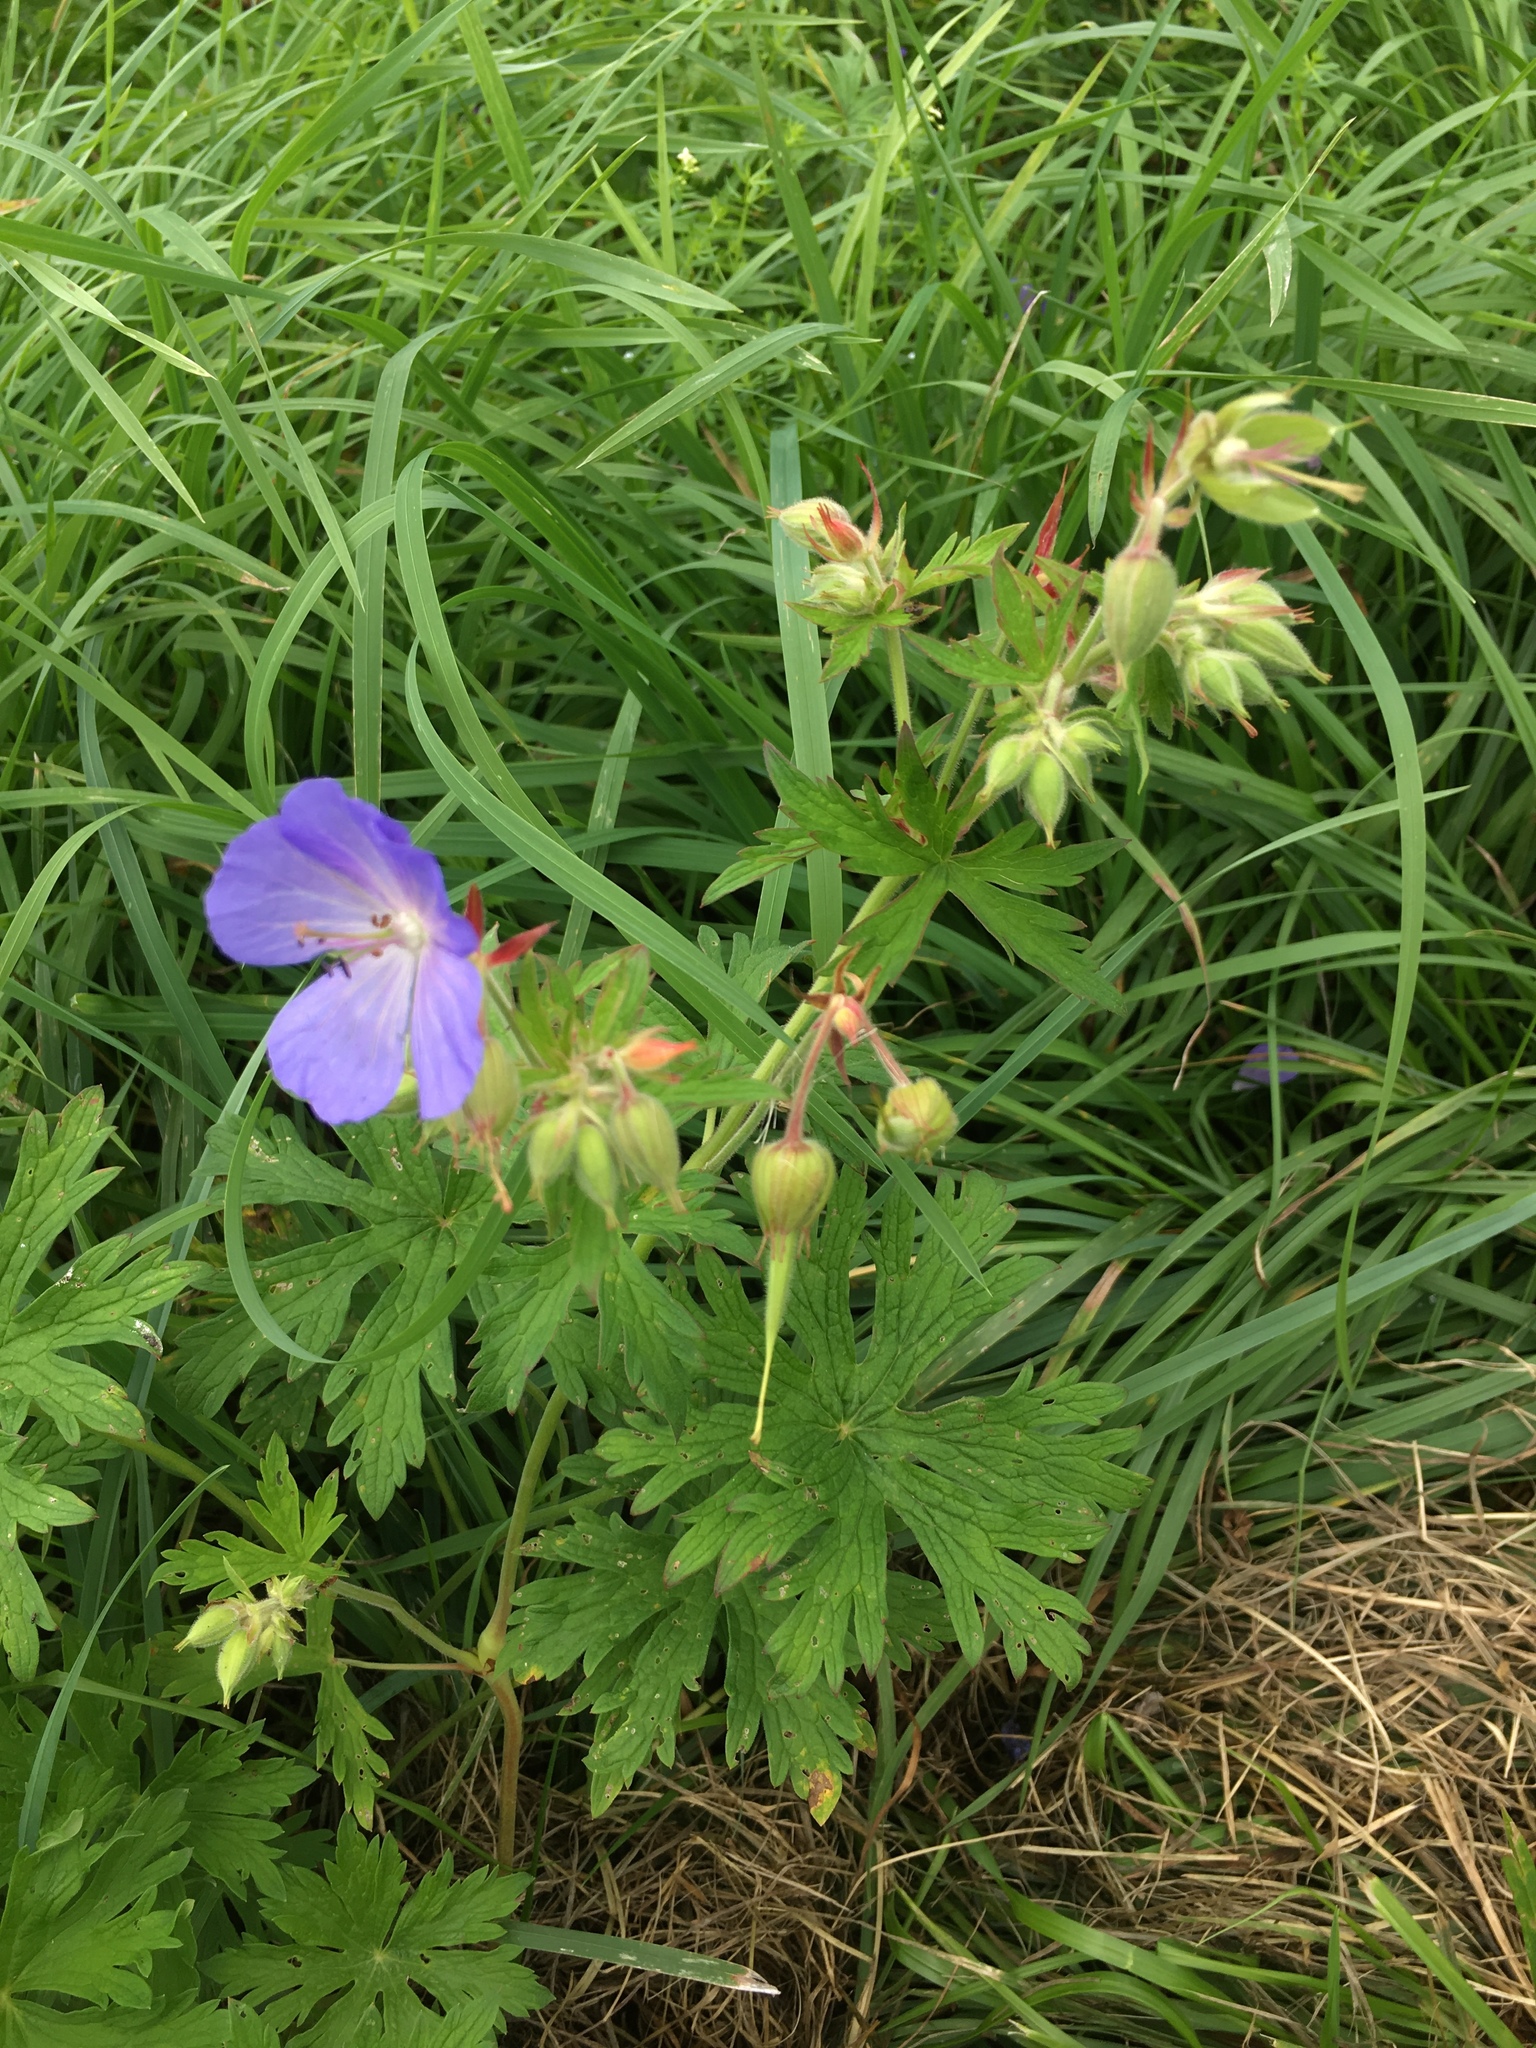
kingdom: Plantae
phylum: Tracheophyta
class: Magnoliopsida
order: Geraniales
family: Geraniaceae
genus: Geranium
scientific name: Geranium pratense
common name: Meadow crane's-bill
